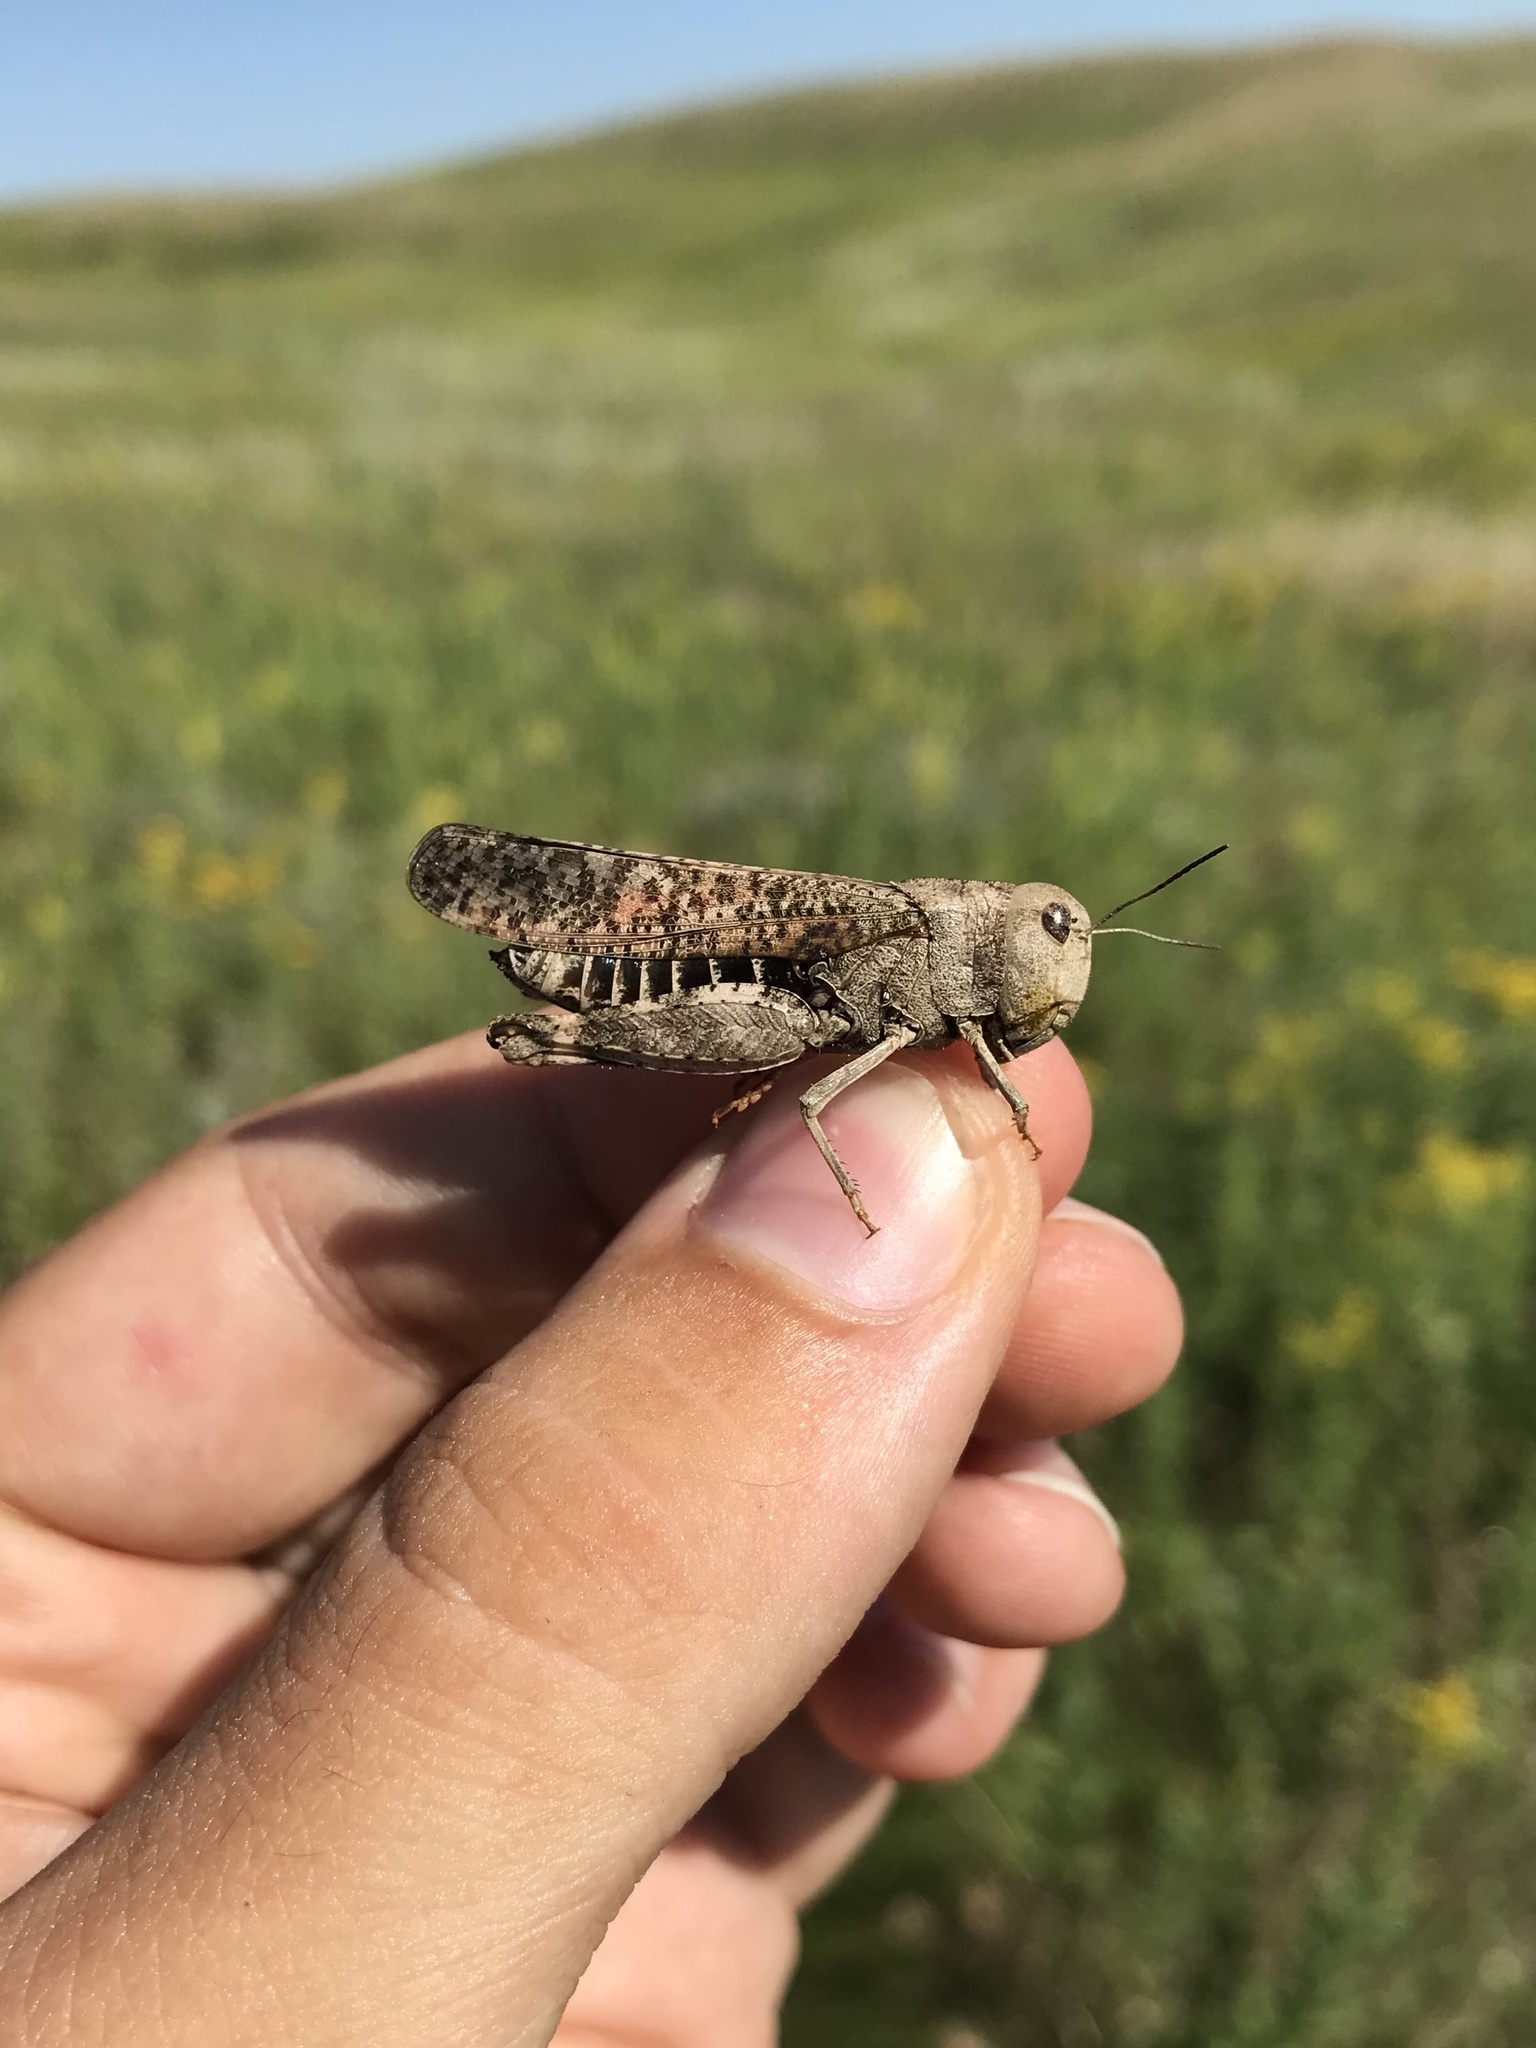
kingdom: Animalia
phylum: Arthropoda
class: Insecta
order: Orthoptera
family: Acrididae
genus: Arphia
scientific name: Arphia pseudo-nietana
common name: Red-winged grasshopper
